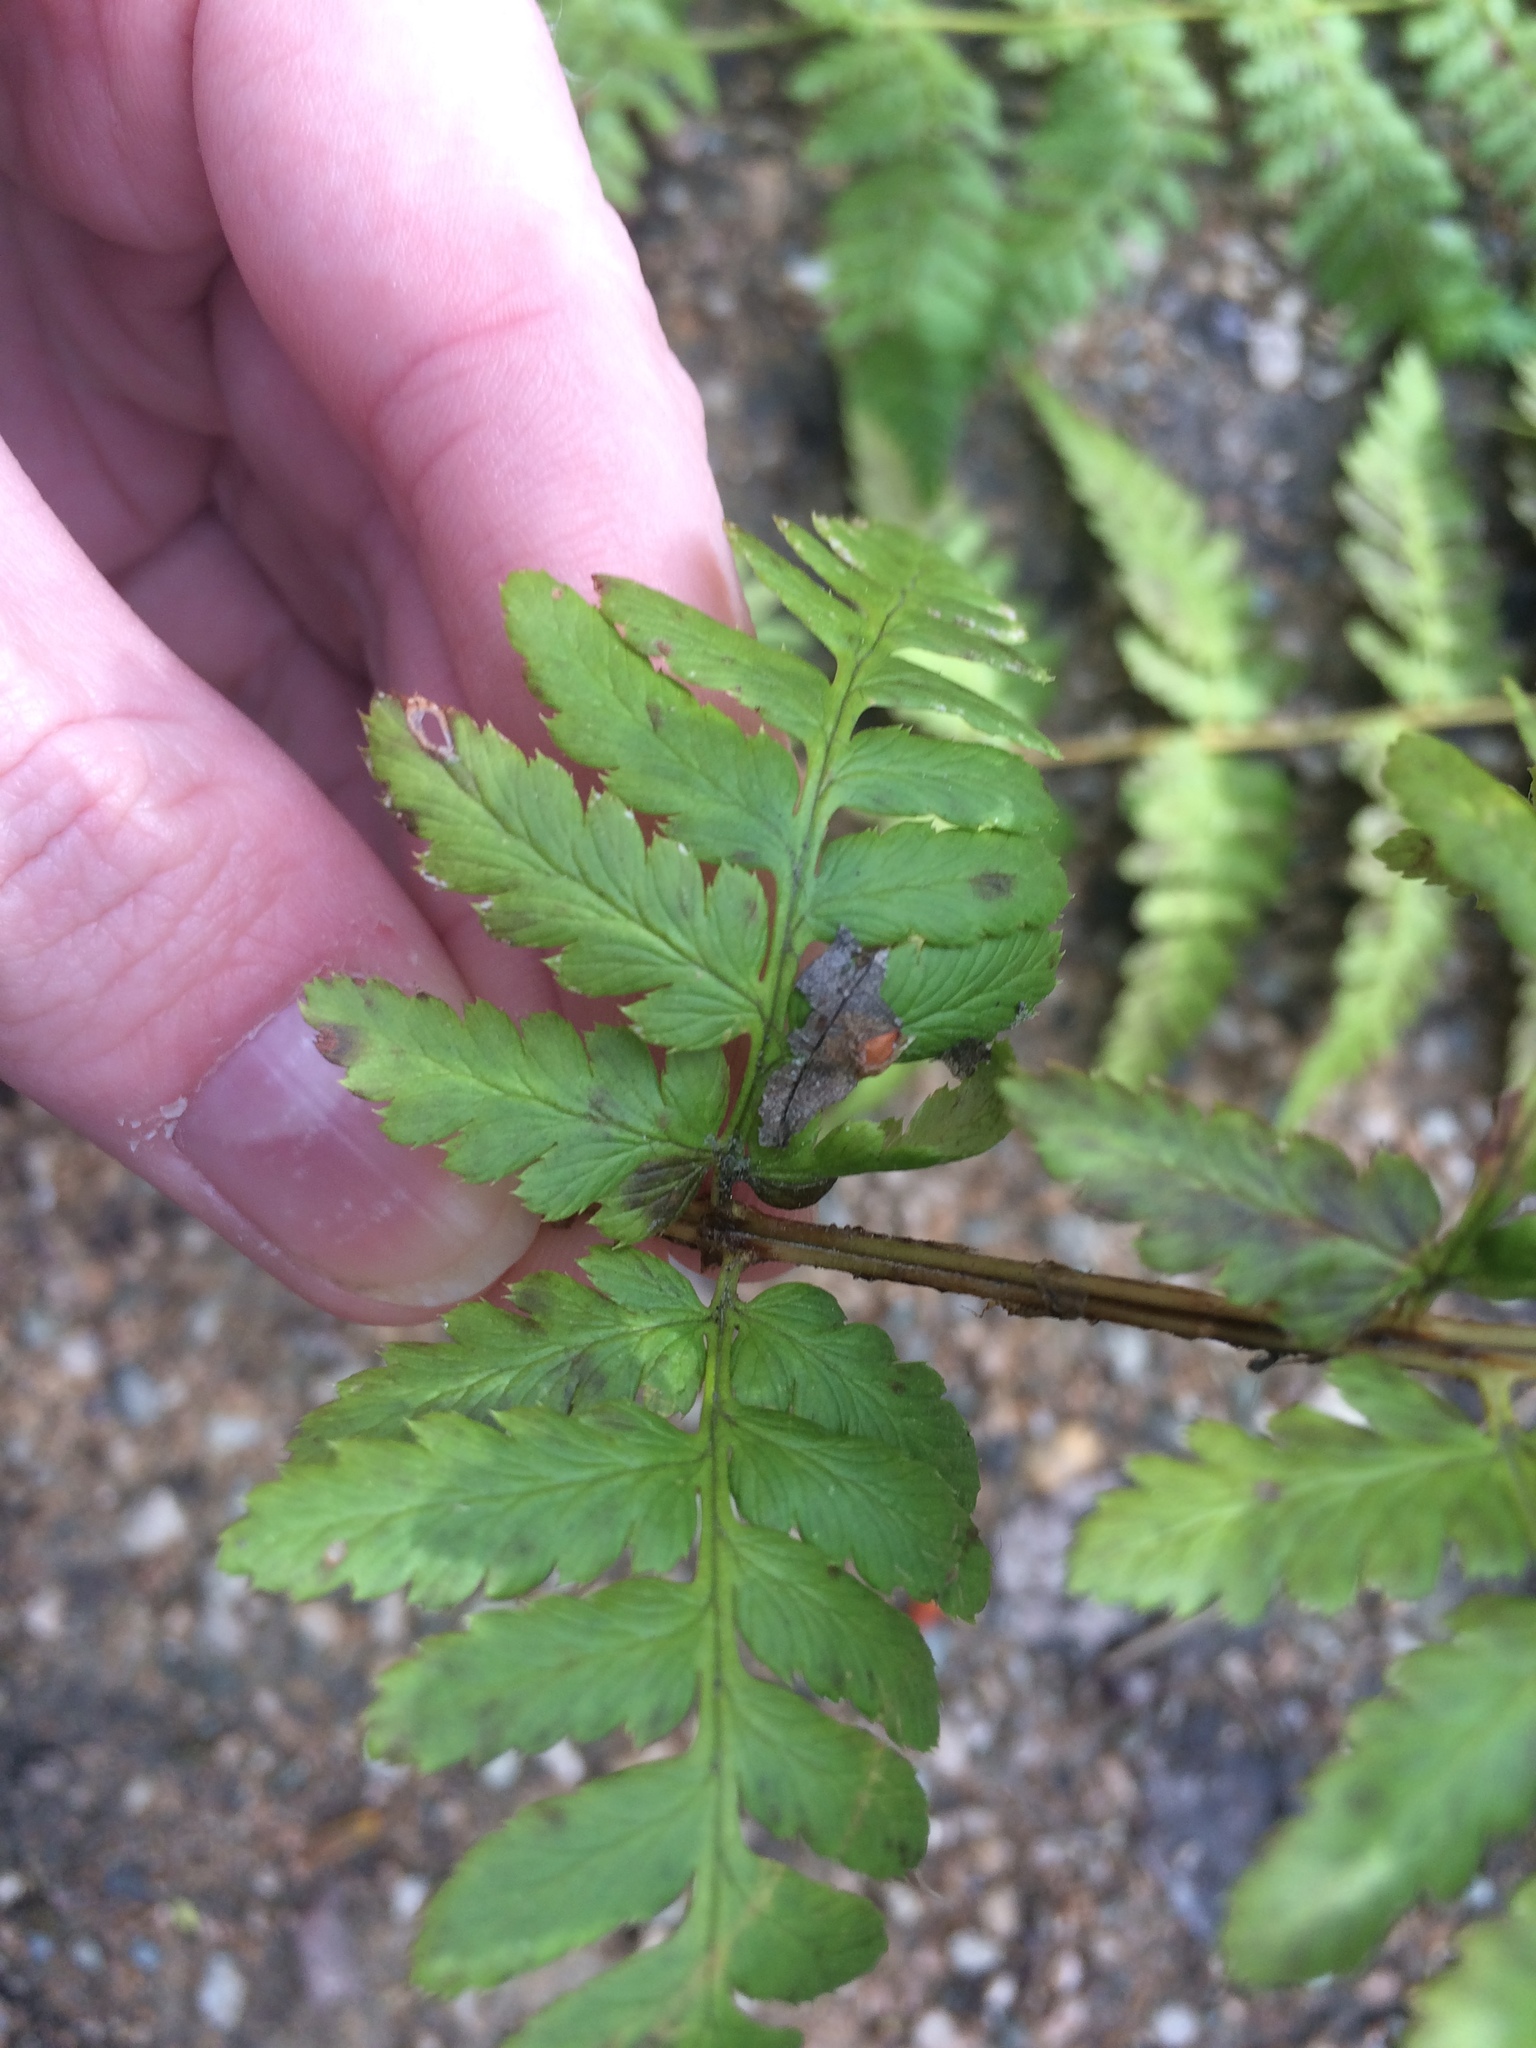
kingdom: Plantae
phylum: Tracheophyta
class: Polypodiopsida
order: Polypodiales
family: Dryopteridaceae
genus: Dryopteris
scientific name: Dryopteris boottii
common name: Boott's fern
